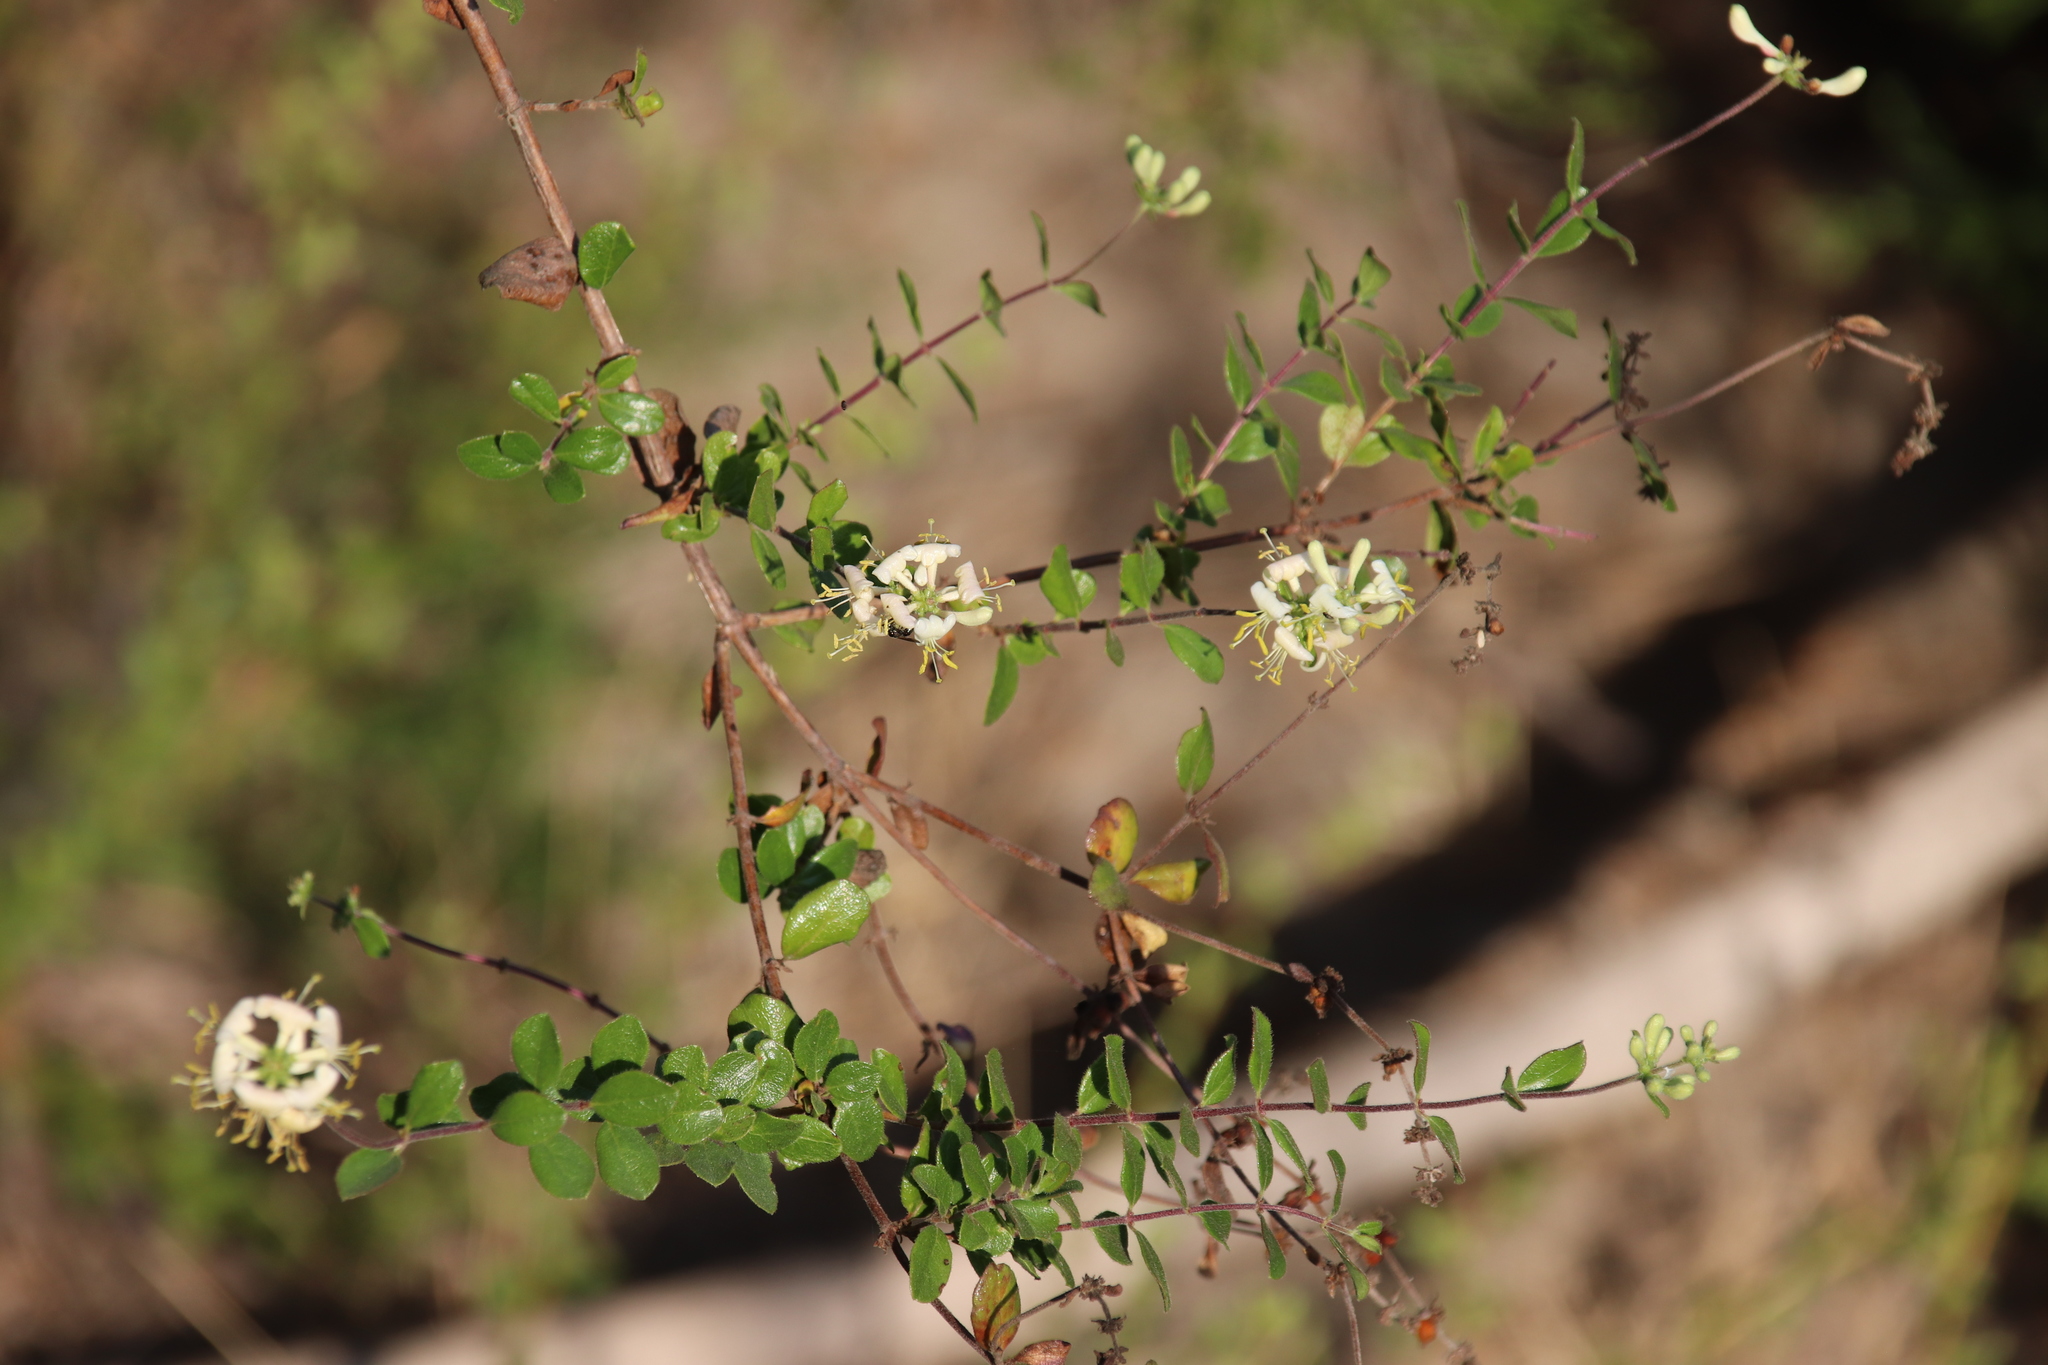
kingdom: Plantae
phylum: Tracheophyta
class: Magnoliopsida
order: Dipsacales
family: Caprifoliaceae
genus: Lonicera
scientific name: Lonicera subspicata
